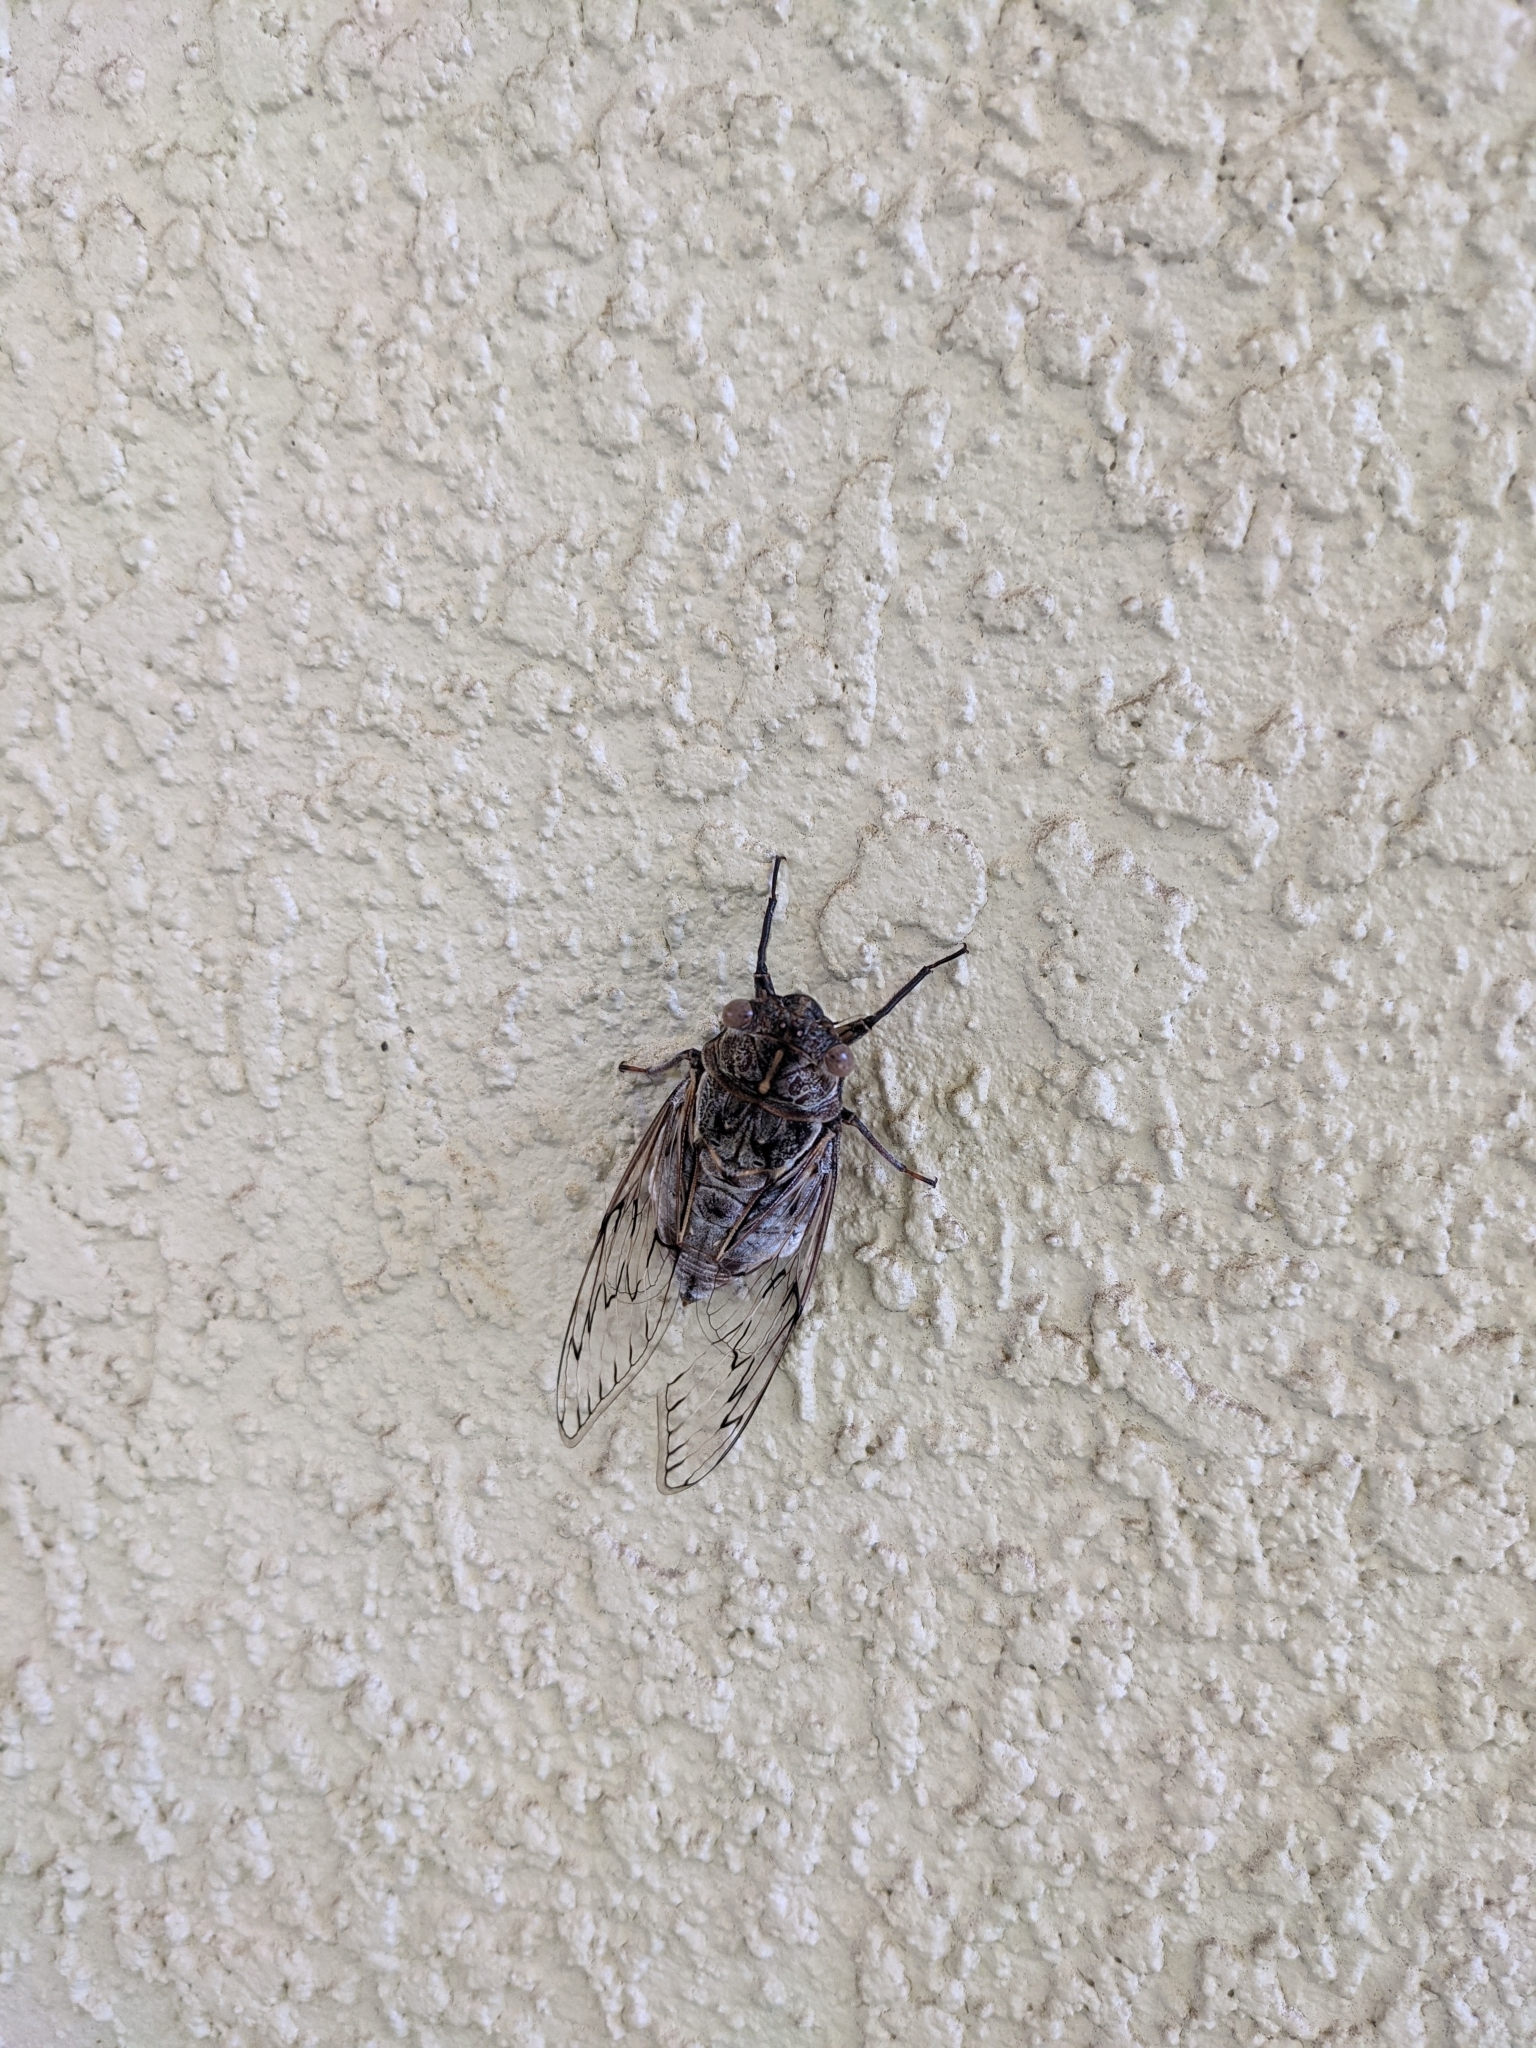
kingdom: Animalia
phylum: Arthropoda
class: Insecta
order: Hemiptera
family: Cicadidae
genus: Henicopsaltria
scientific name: Henicopsaltria eydouxii
